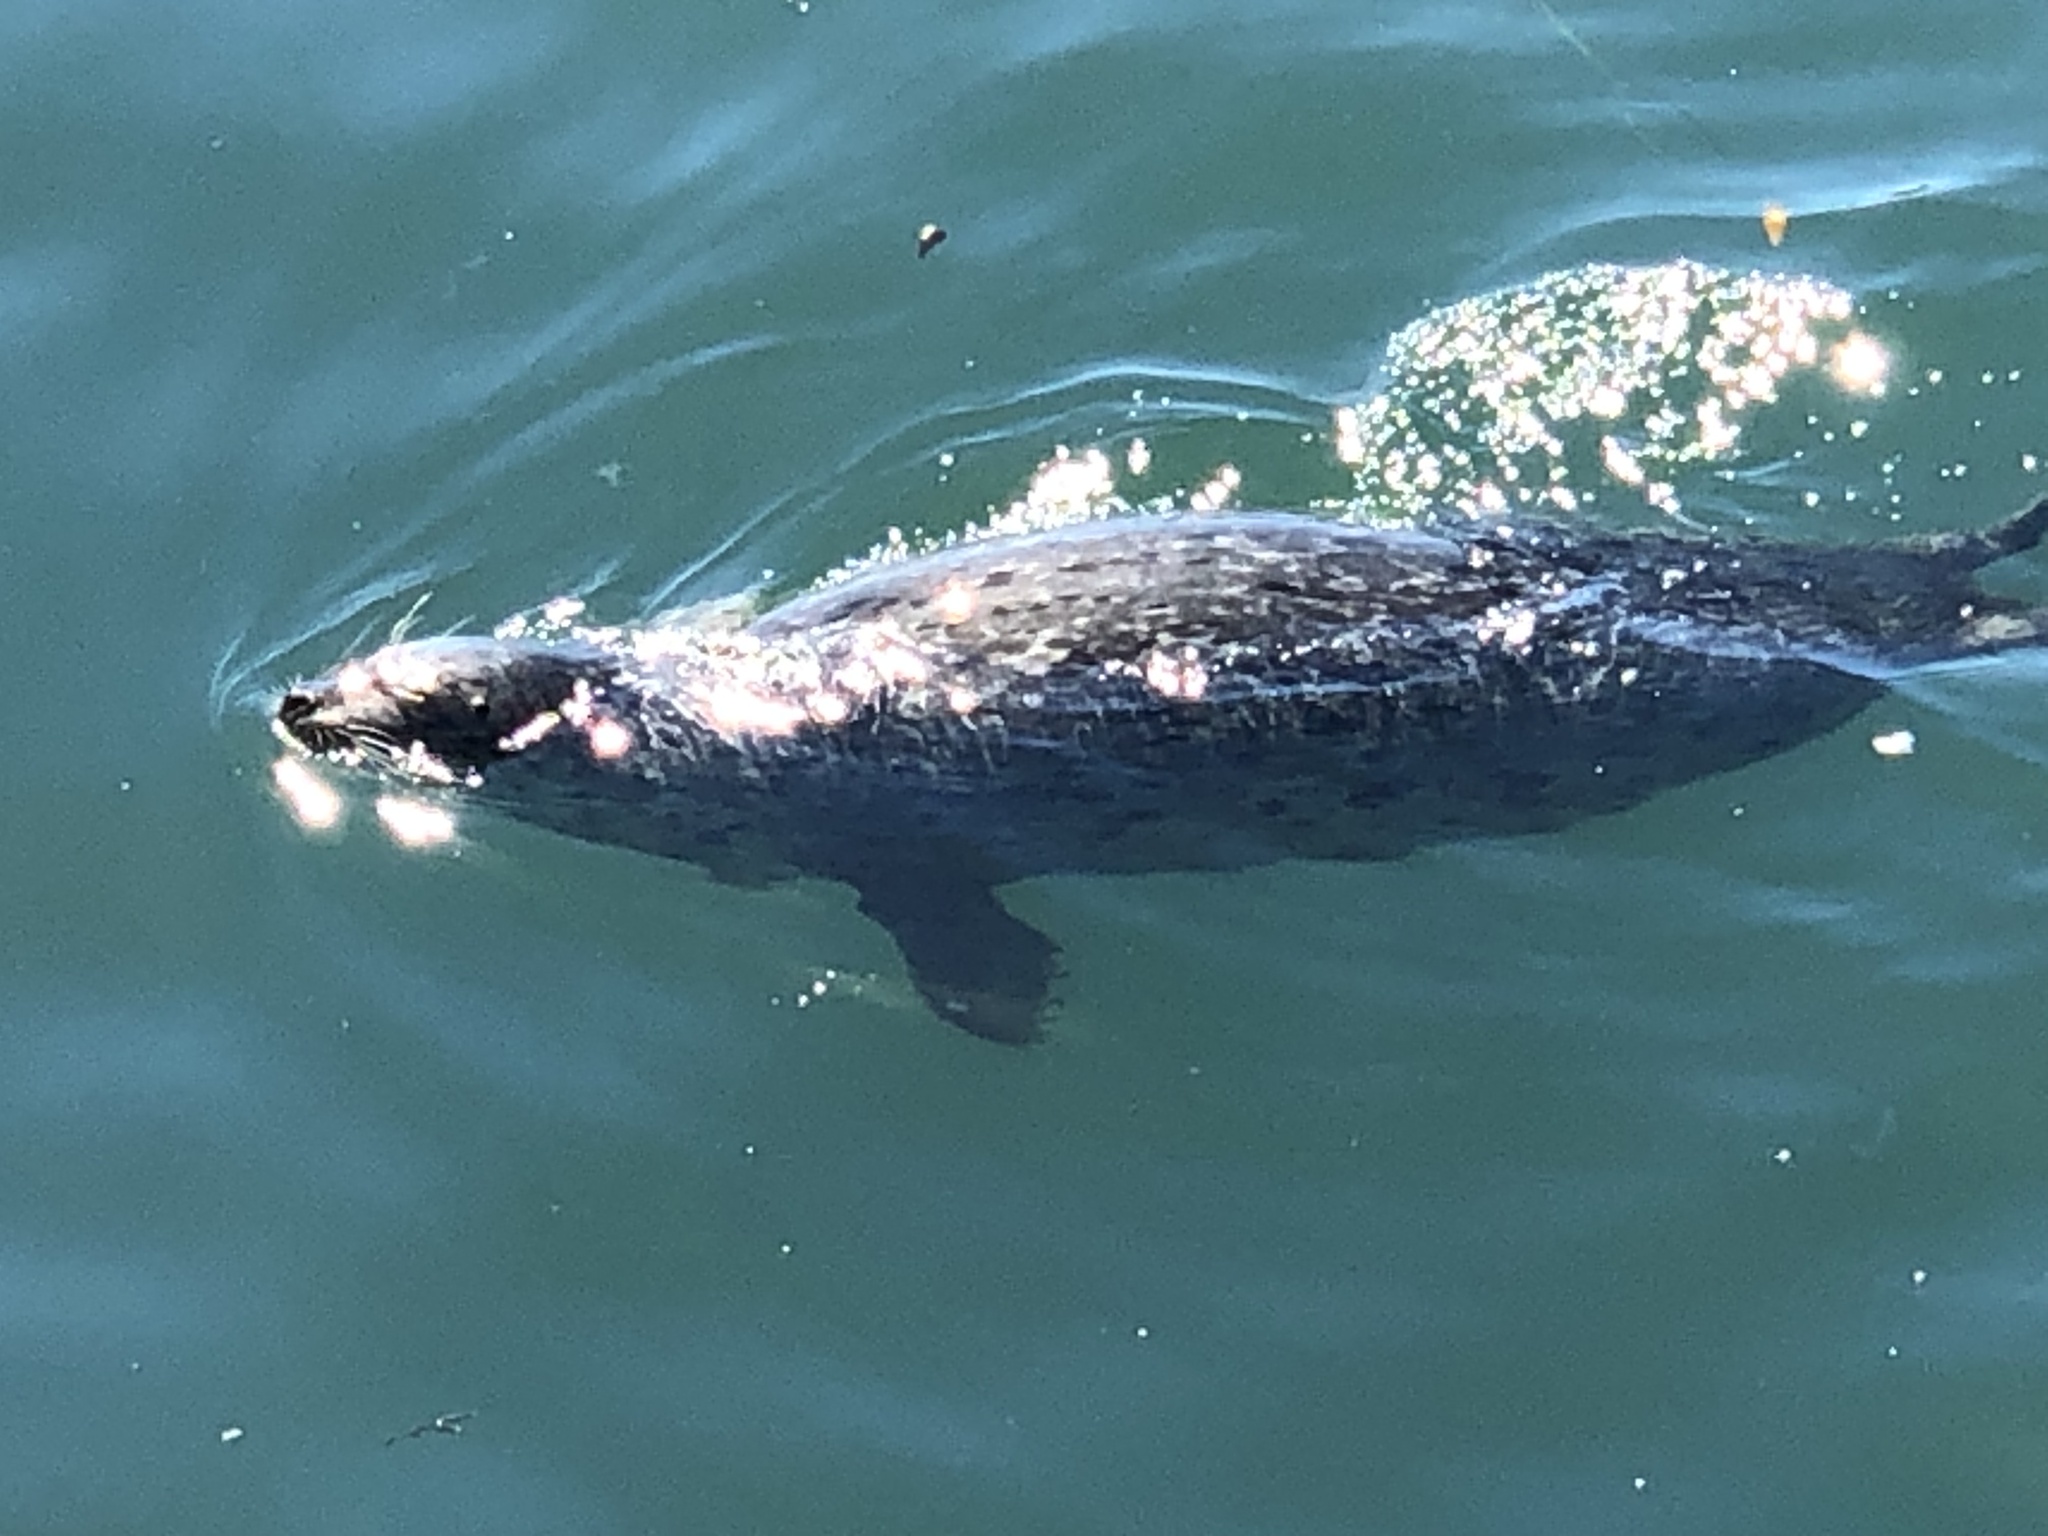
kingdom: Animalia
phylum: Chordata
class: Mammalia
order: Carnivora
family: Phocidae
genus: Phoca
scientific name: Phoca vitulina
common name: Harbor seal
